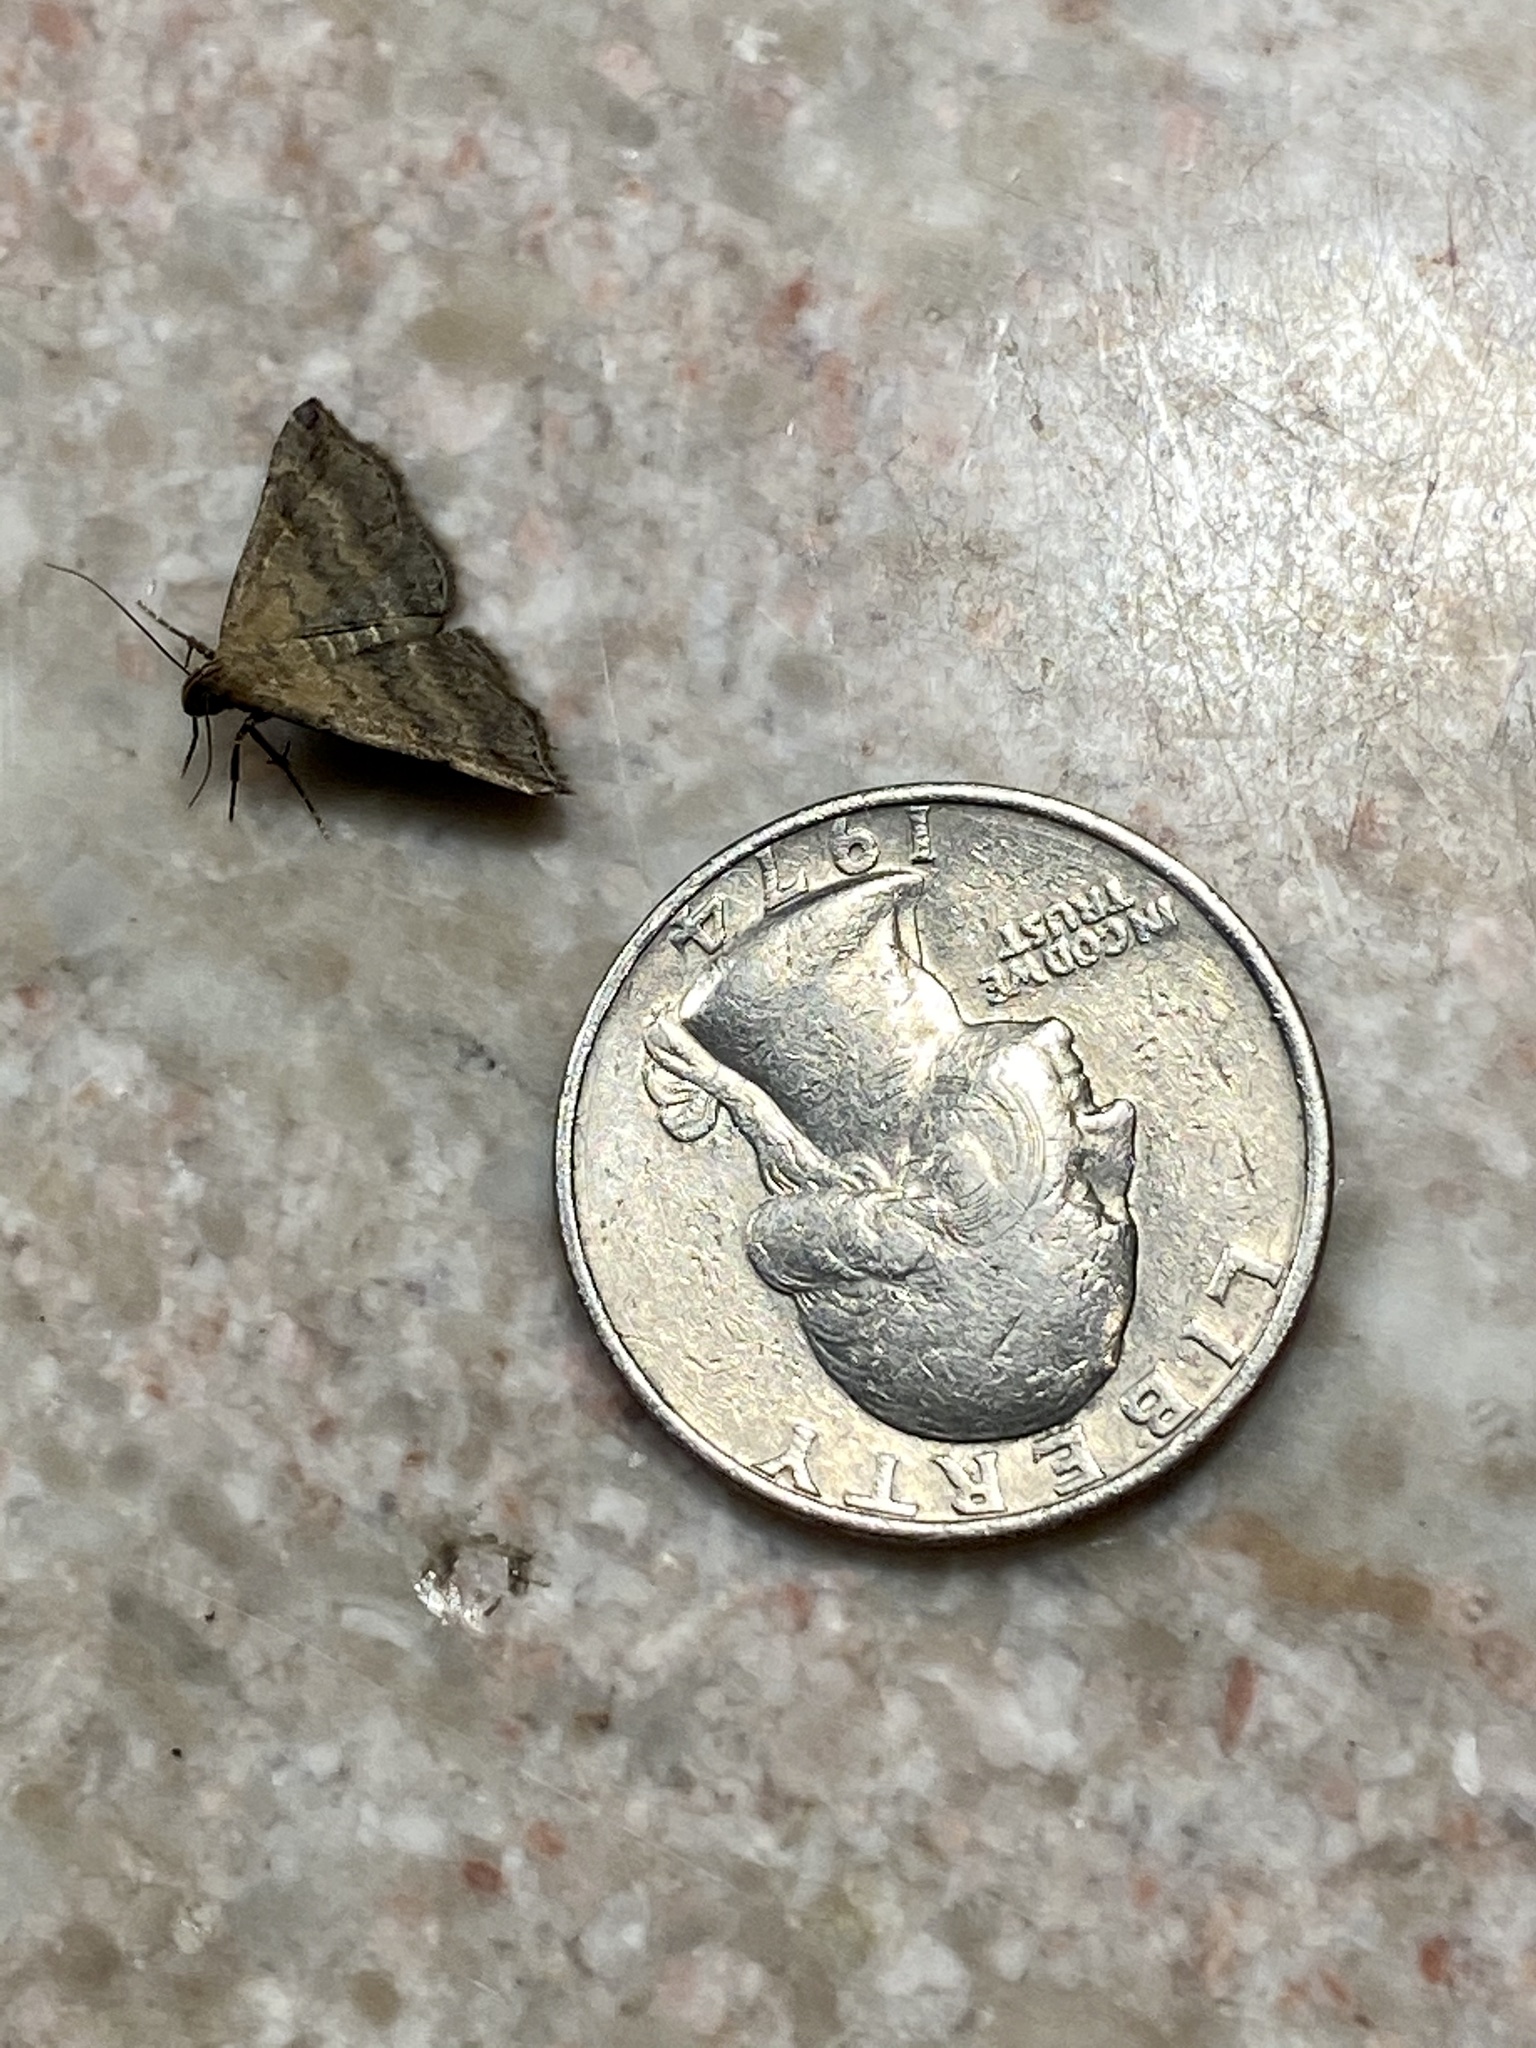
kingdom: Animalia
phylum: Arthropoda
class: Insecta
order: Lepidoptera
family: Erebidae
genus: Tetanolita
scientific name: Tetanolita floridana
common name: Florida tetanolita moth
